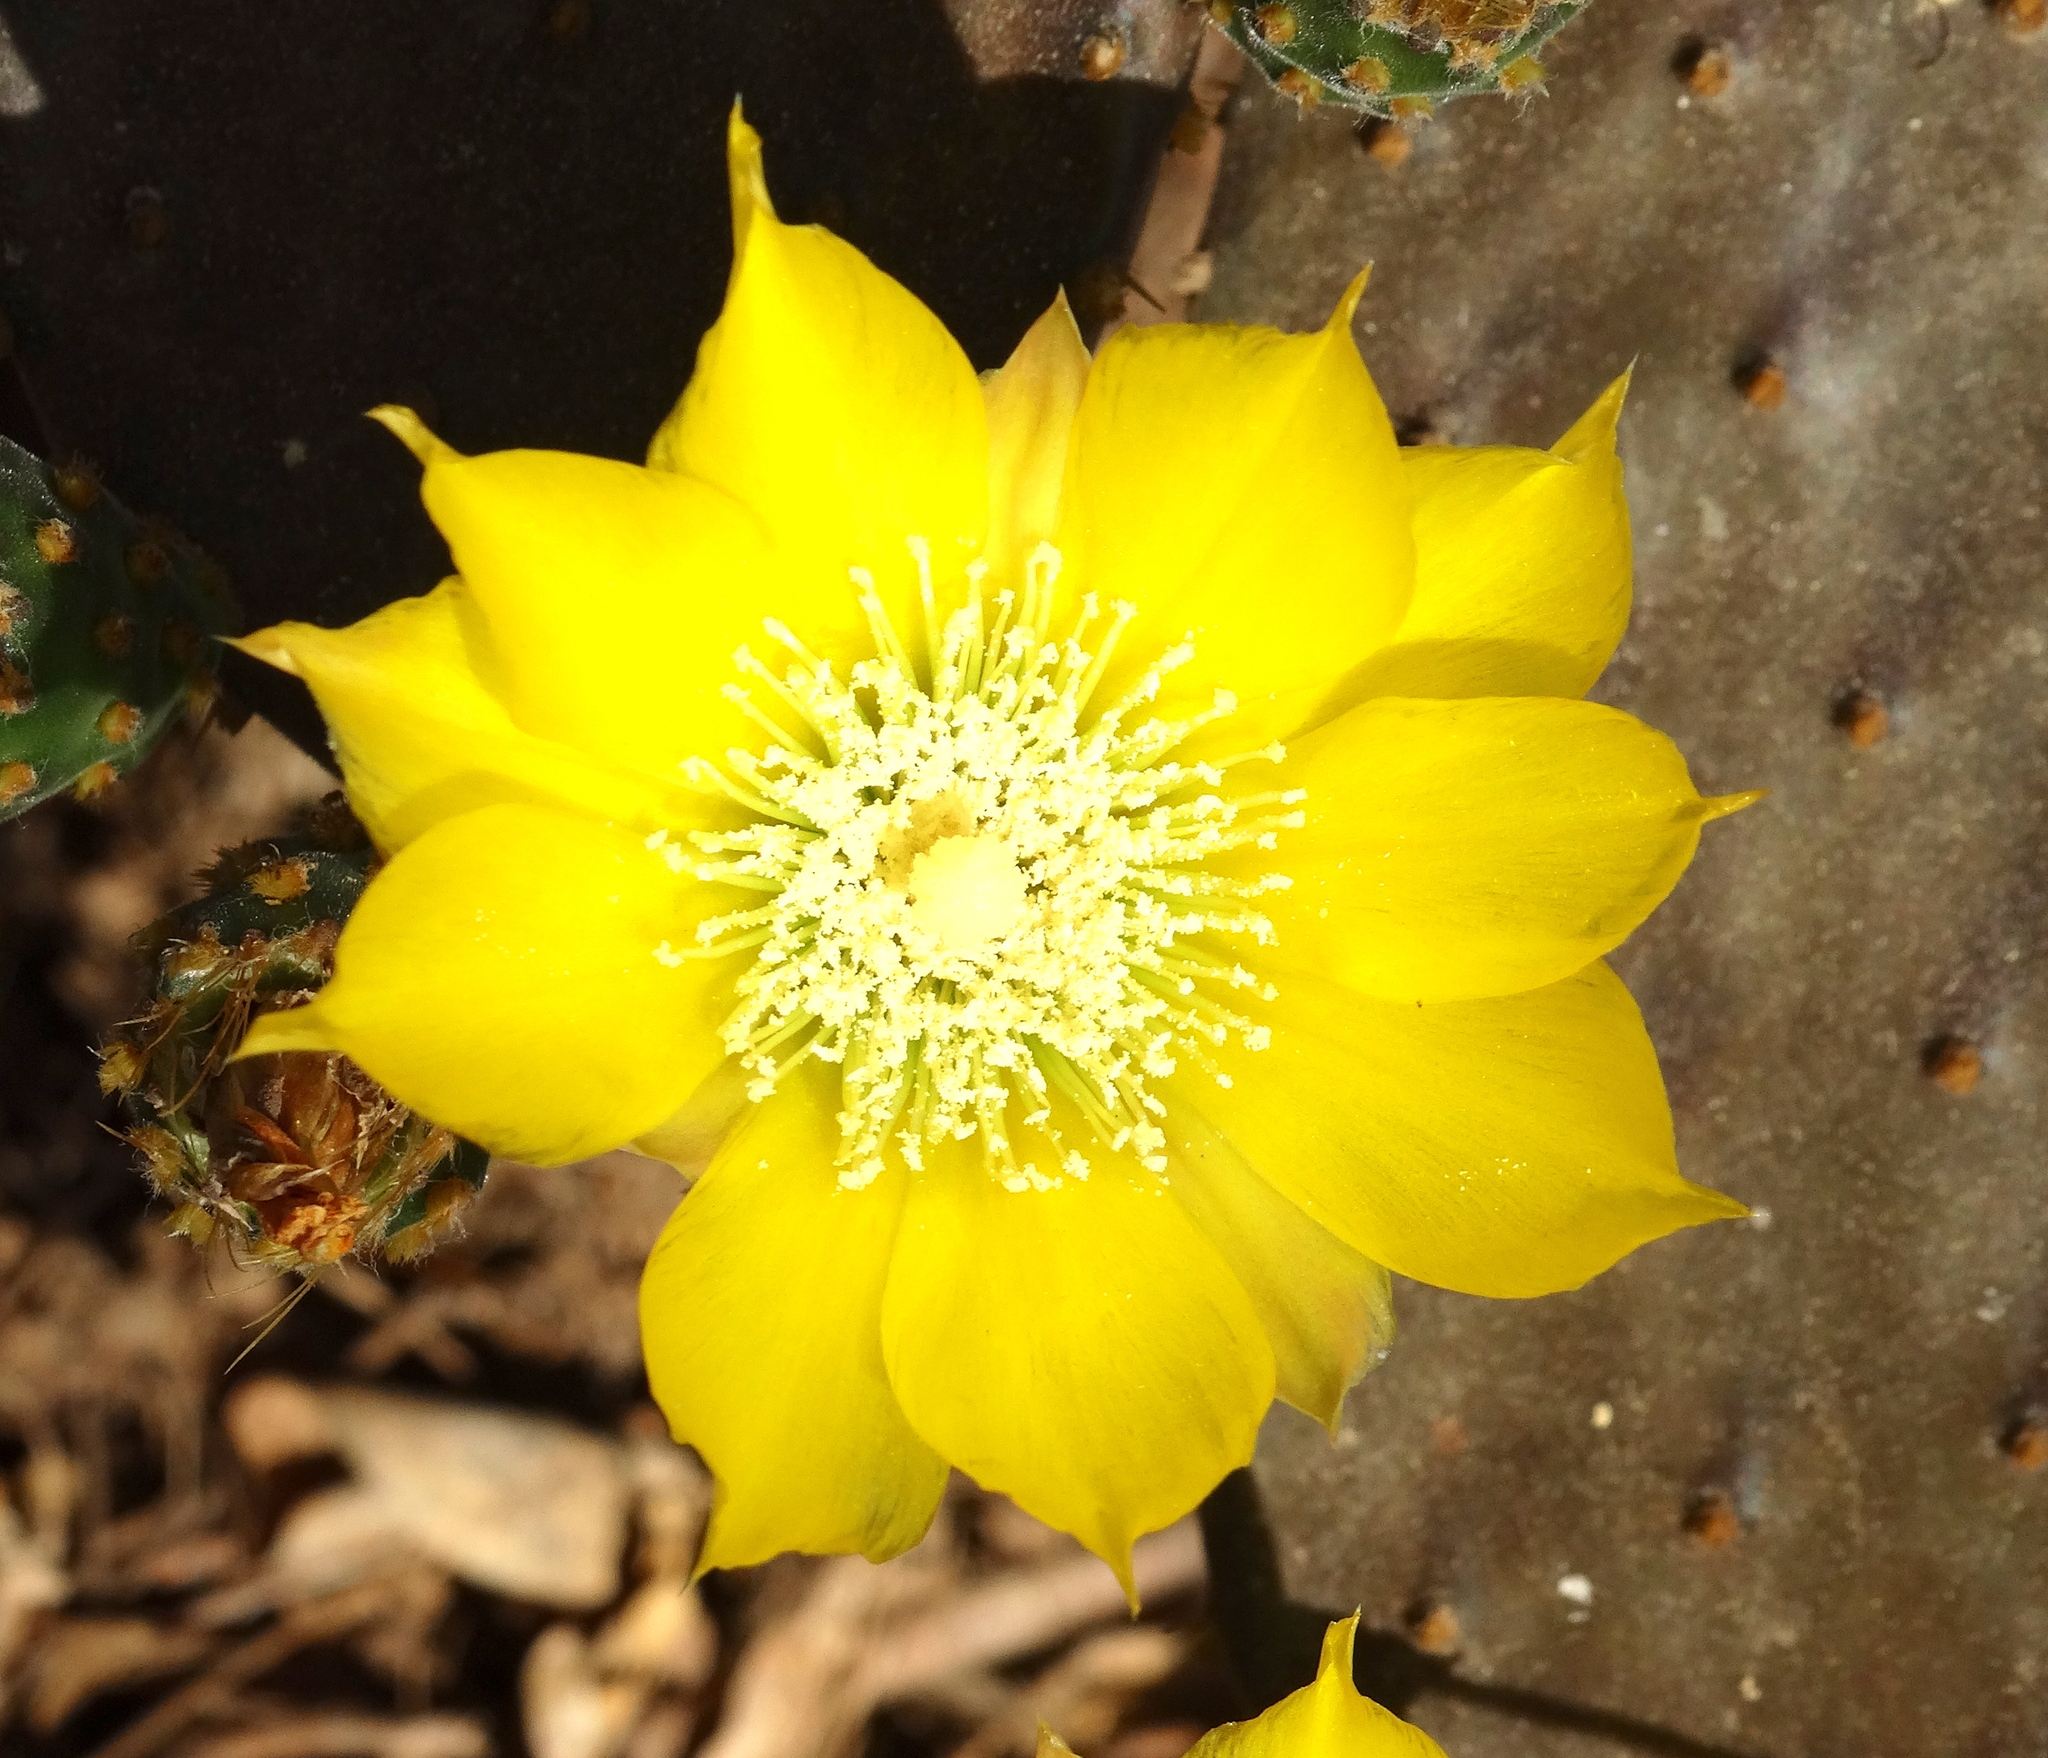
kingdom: Plantae
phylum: Tracheophyta
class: Magnoliopsida
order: Caryophyllales
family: Cactaceae
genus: Opuntia
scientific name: Opuntia decumbens
